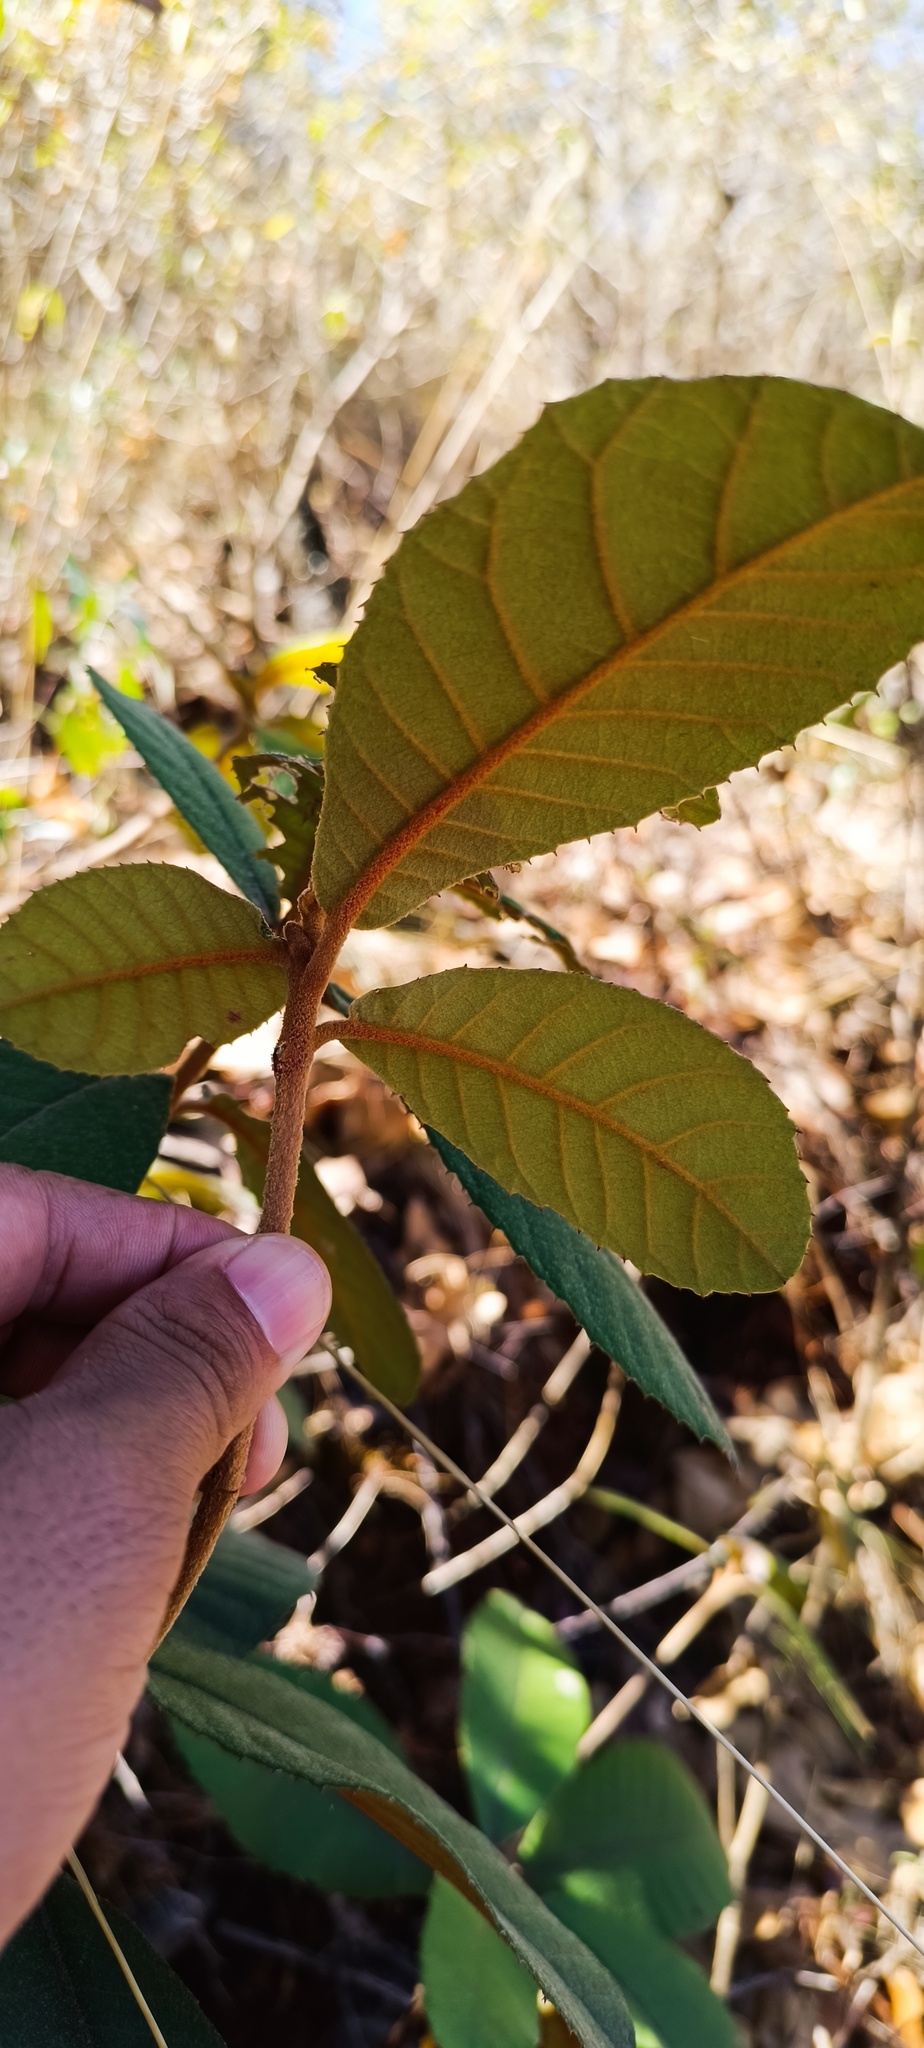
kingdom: Plantae
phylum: Tracheophyta
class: Magnoliopsida
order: Ericales
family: Clethraceae
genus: Clethra
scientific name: Clethra mexicana
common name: Nance macho
